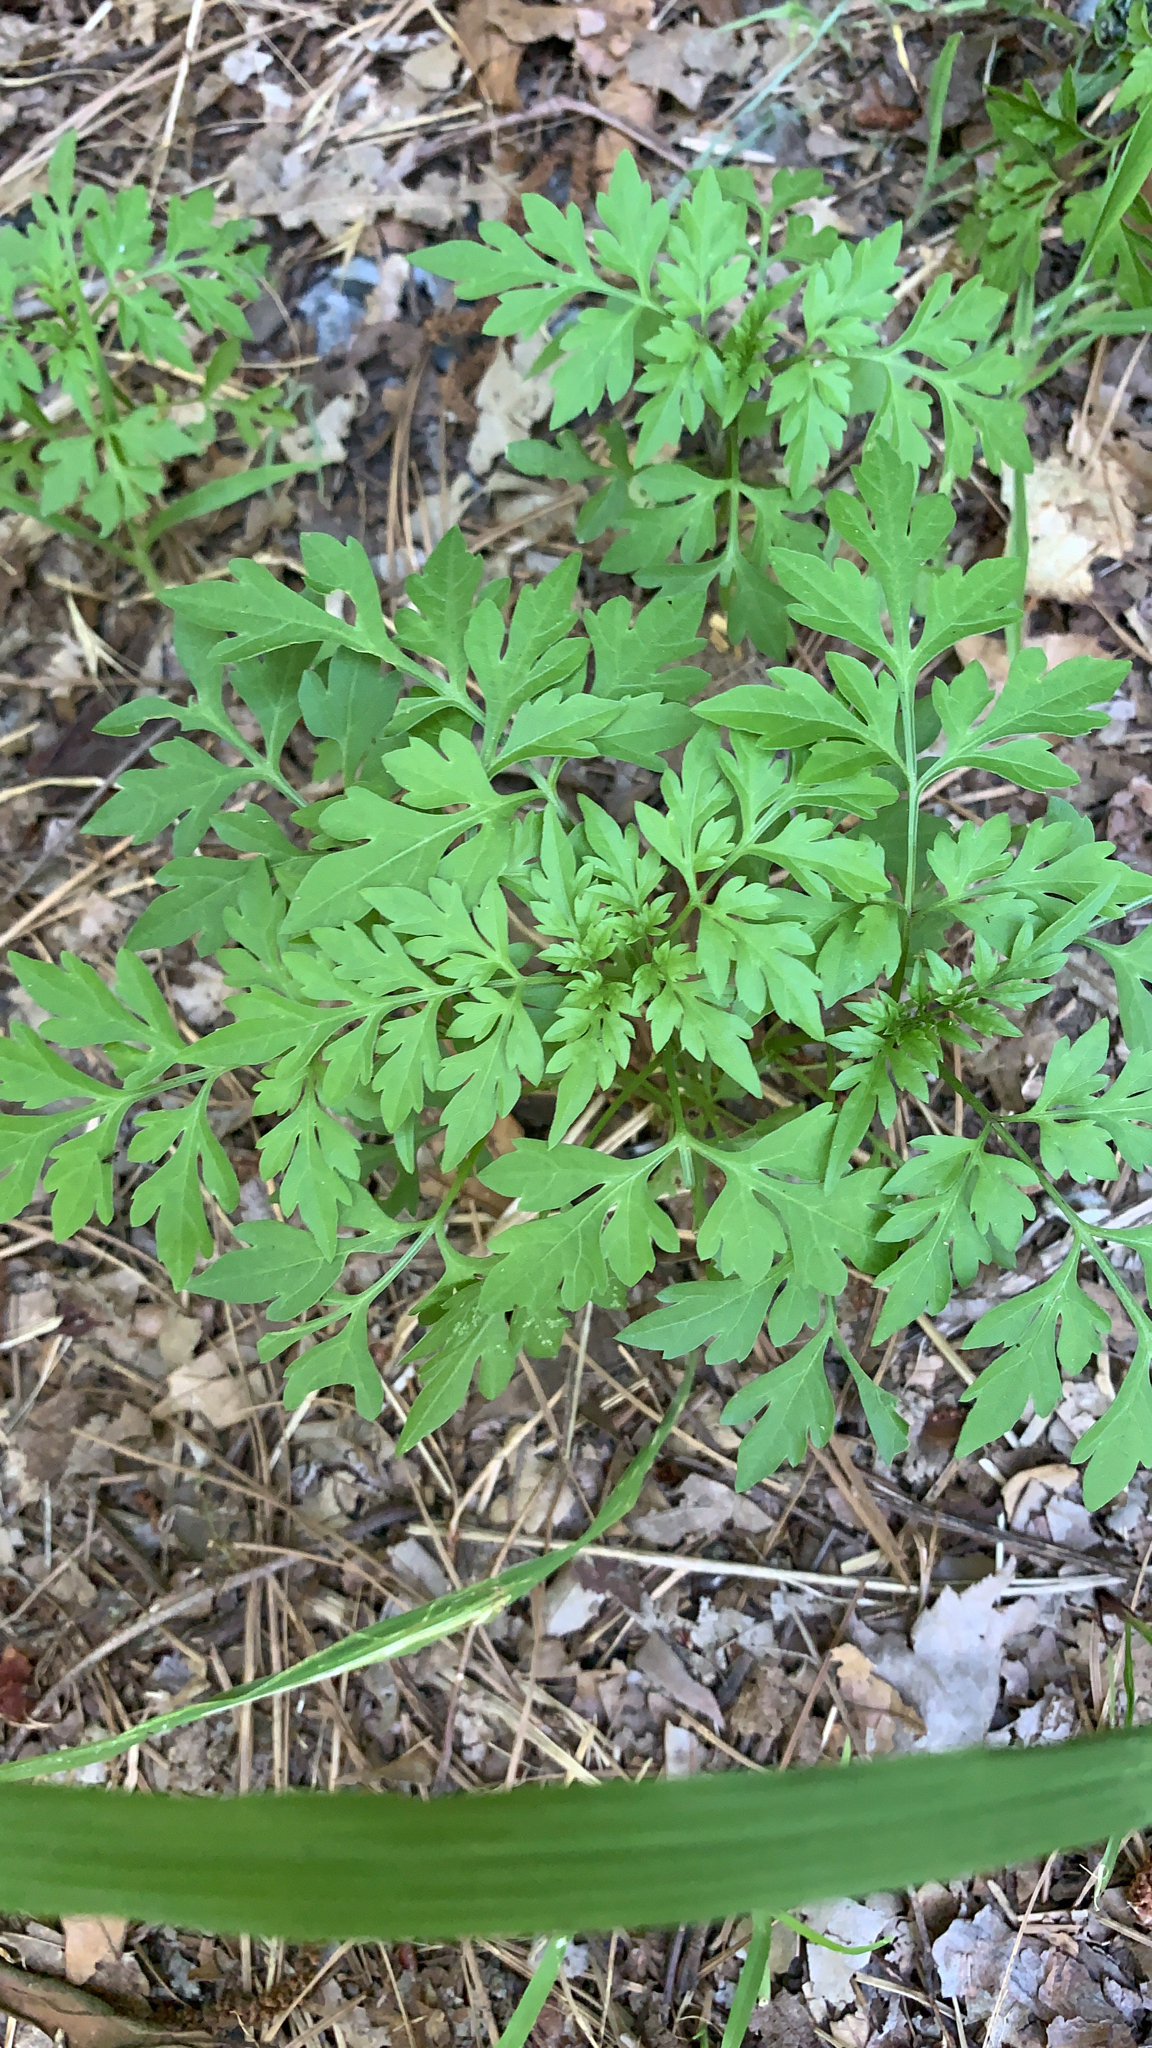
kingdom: Plantae
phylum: Tracheophyta
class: Magnoliopsida
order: Asterales
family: Asteraceae
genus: Bidens
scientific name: Bidens bipinnata
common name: Spanish-needles
